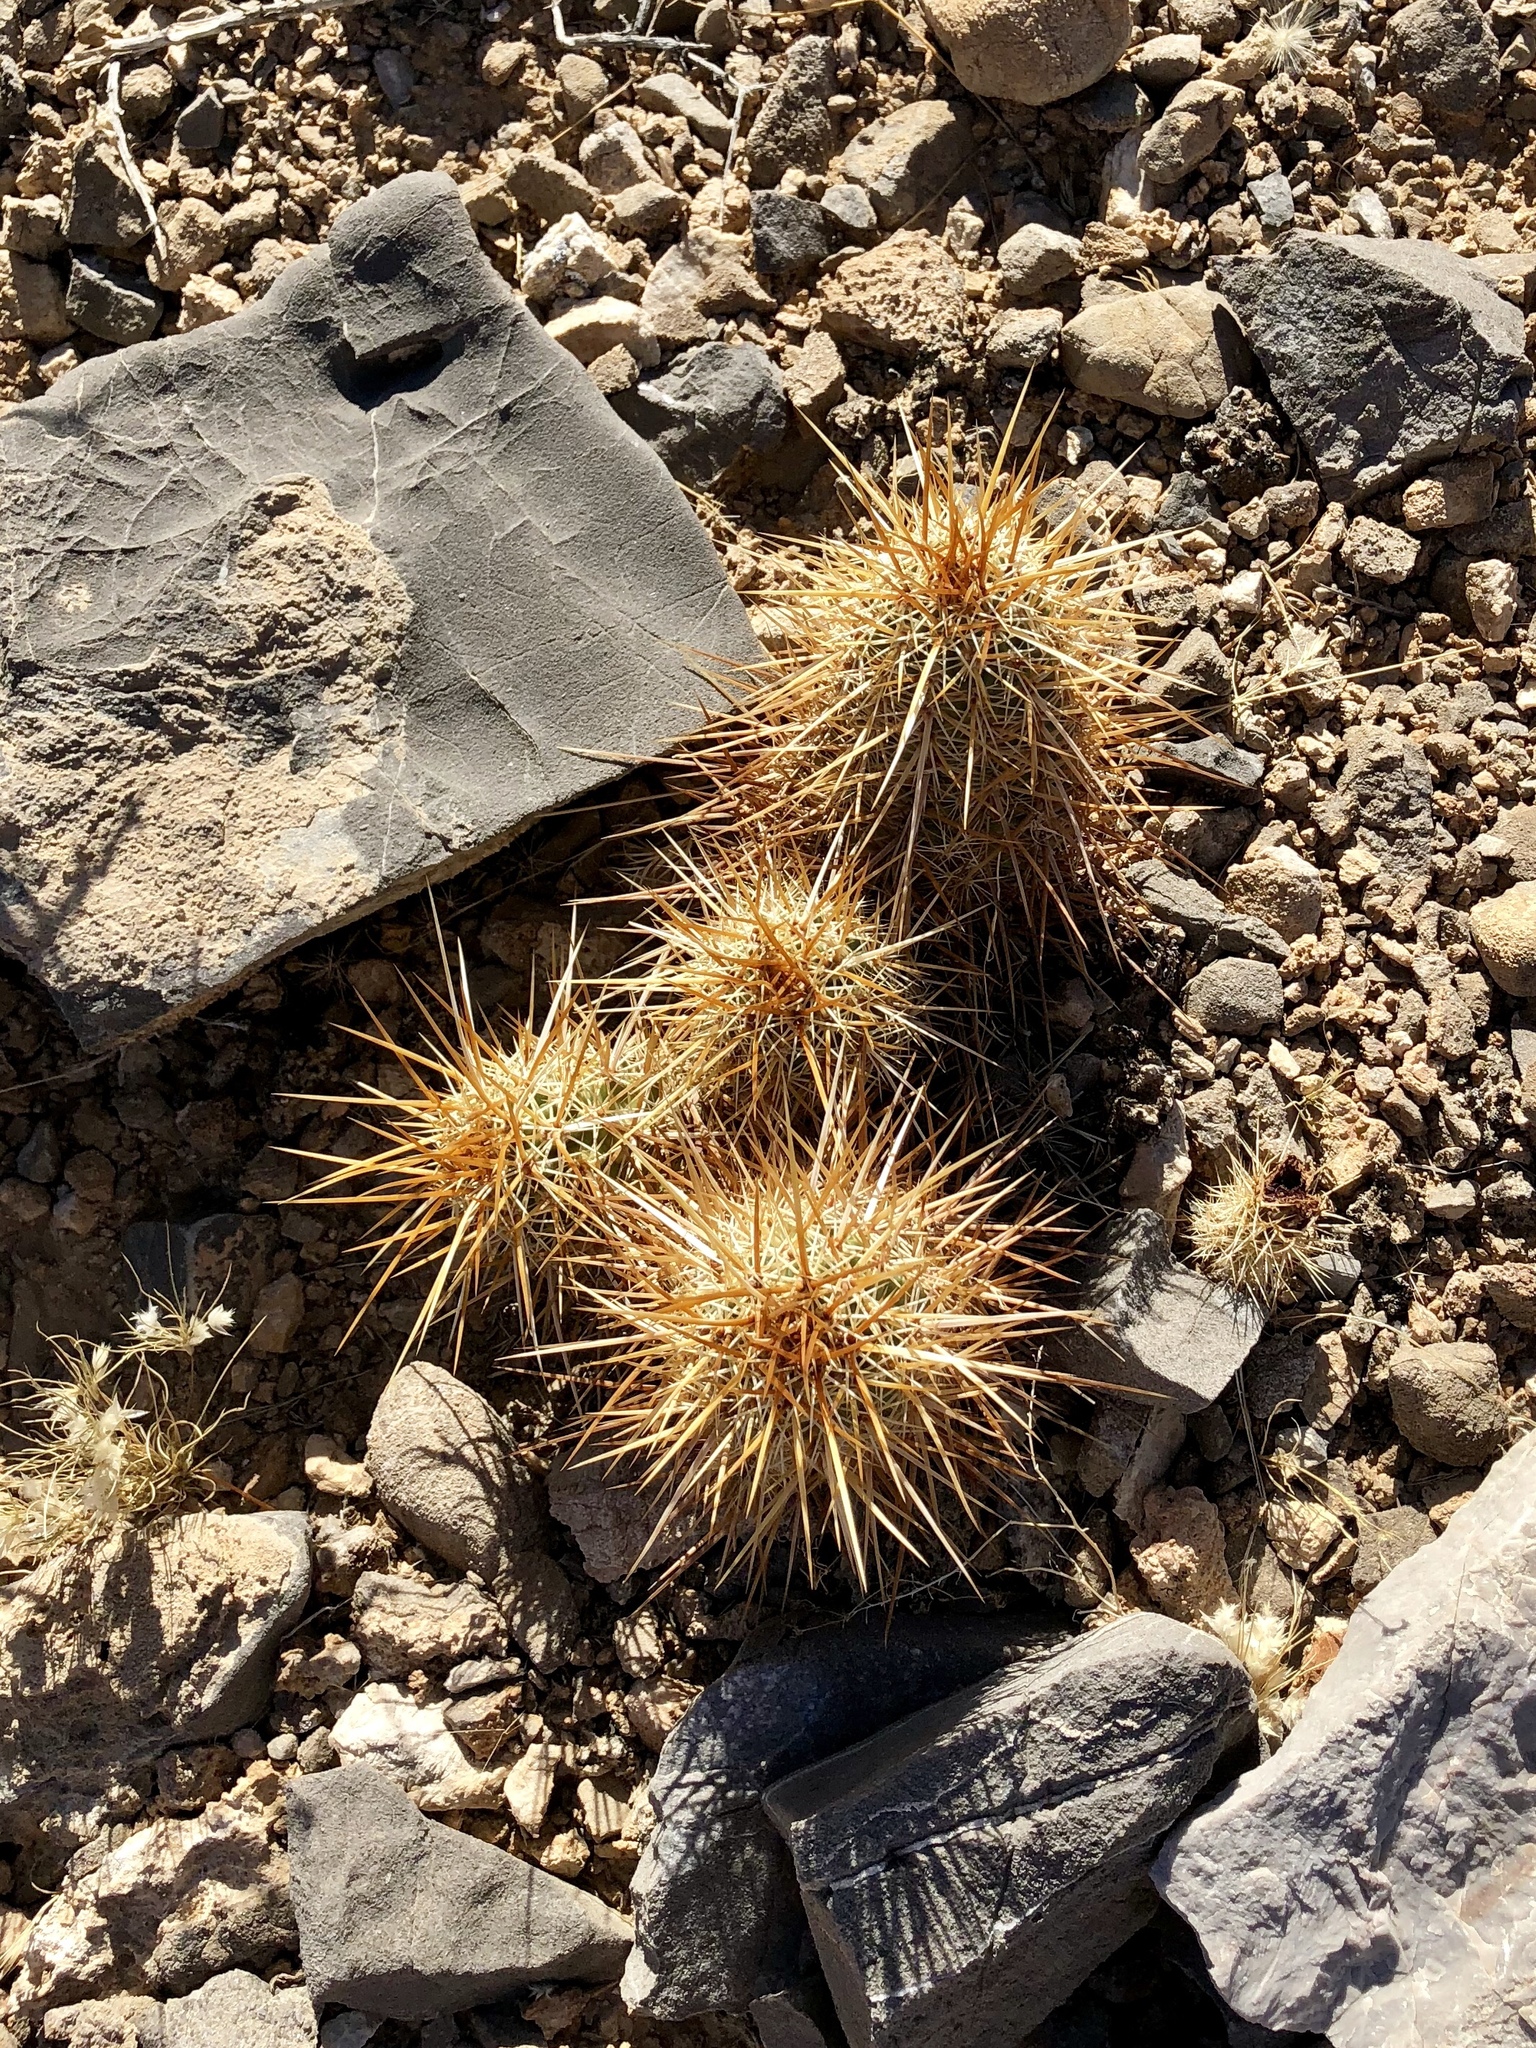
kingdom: Plantae
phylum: Tracheophyta
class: Magnoliopsida
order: Caryophyllales
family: Cactaceae
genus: Echinocereus
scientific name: Echinocereus engelmannii
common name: Engelmann's hedgehog cactus
